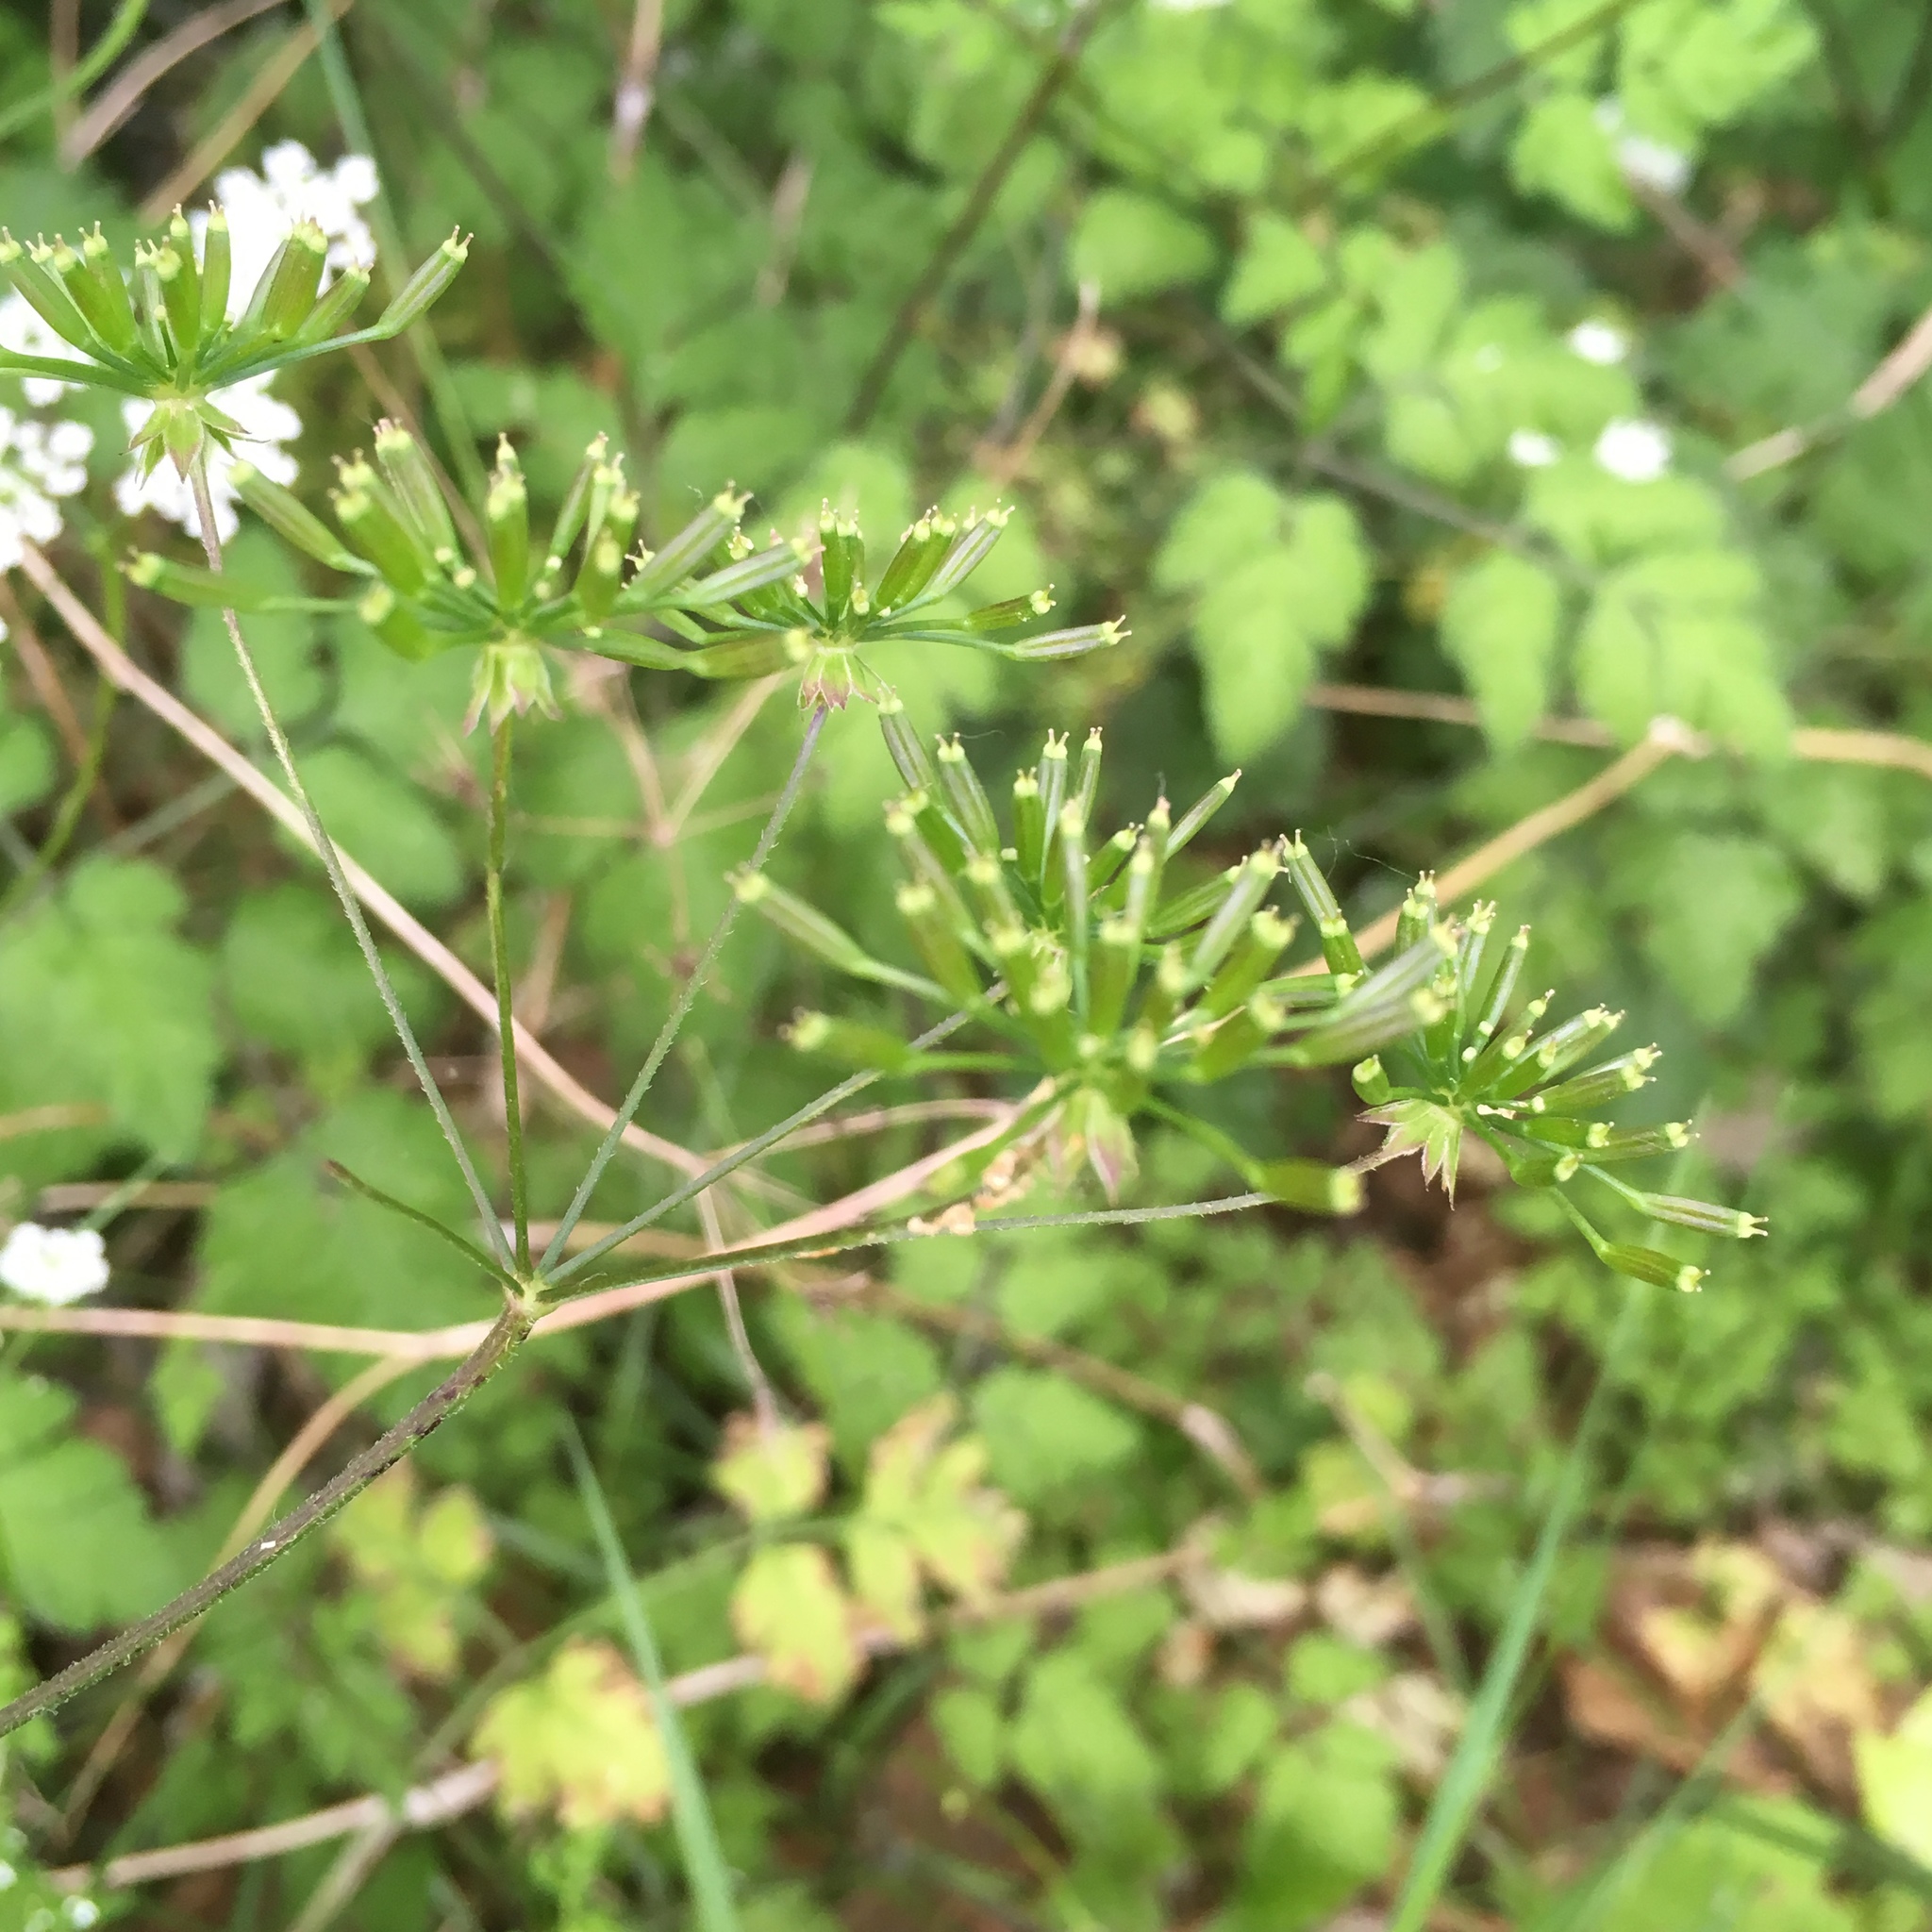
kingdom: Plantae
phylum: Tracheophyta
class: Magnoliopsida
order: Apiales
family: Apiaceae
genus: Chaerophyllum
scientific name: Chaerophyllum temulum
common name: Rough chervil
